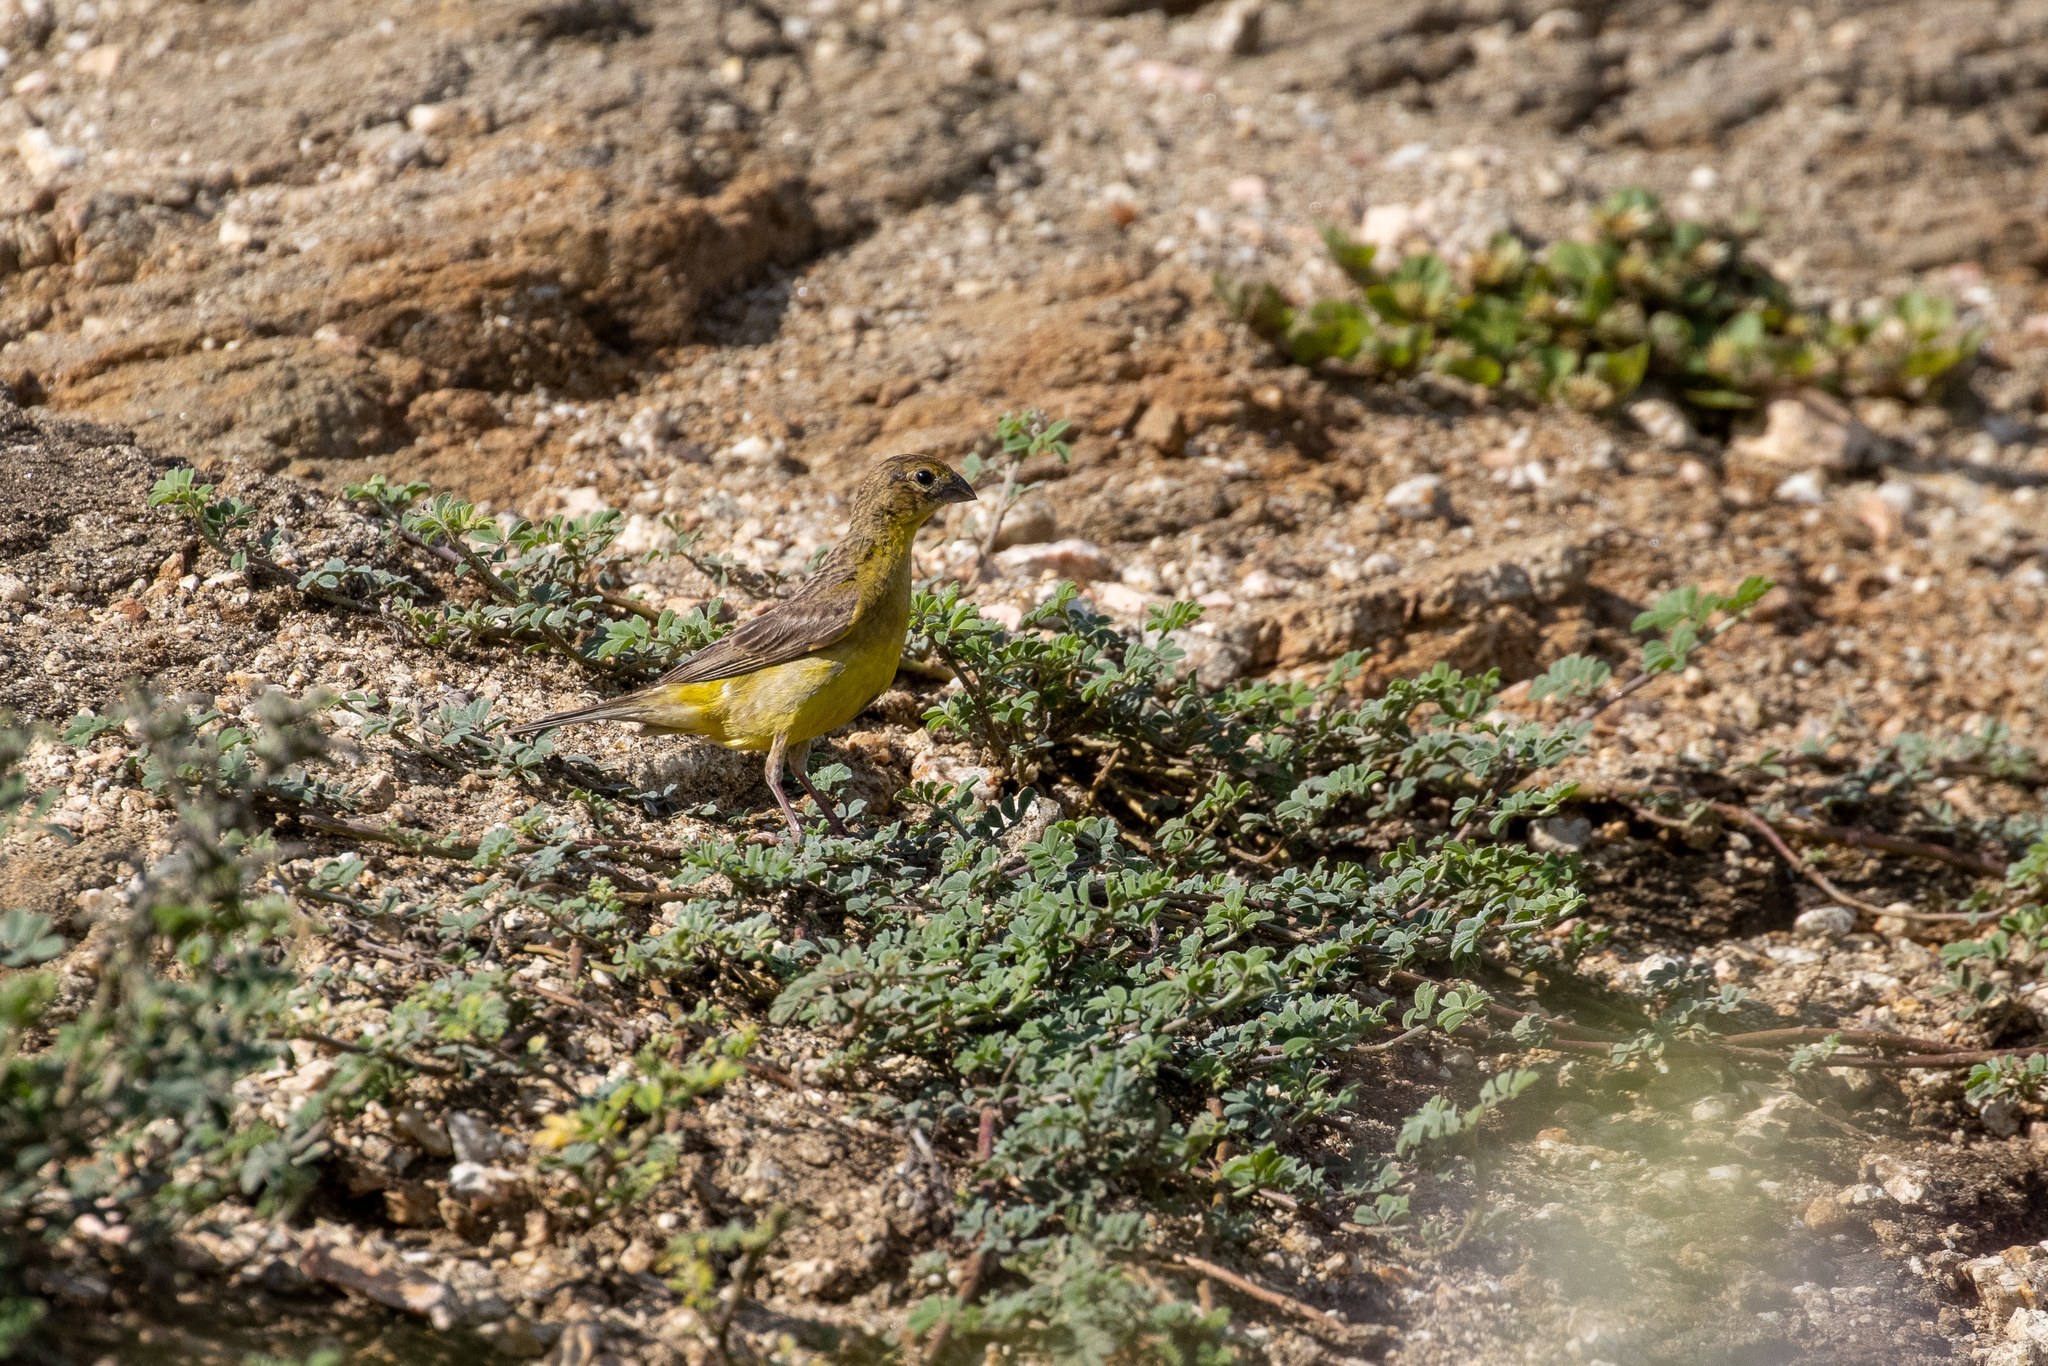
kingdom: Animalia
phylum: Chordata
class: Aves
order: Passeriformes
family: Thraupidae
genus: Sicalis
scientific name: Sicalis luteola
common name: Grassland yellow-finch
